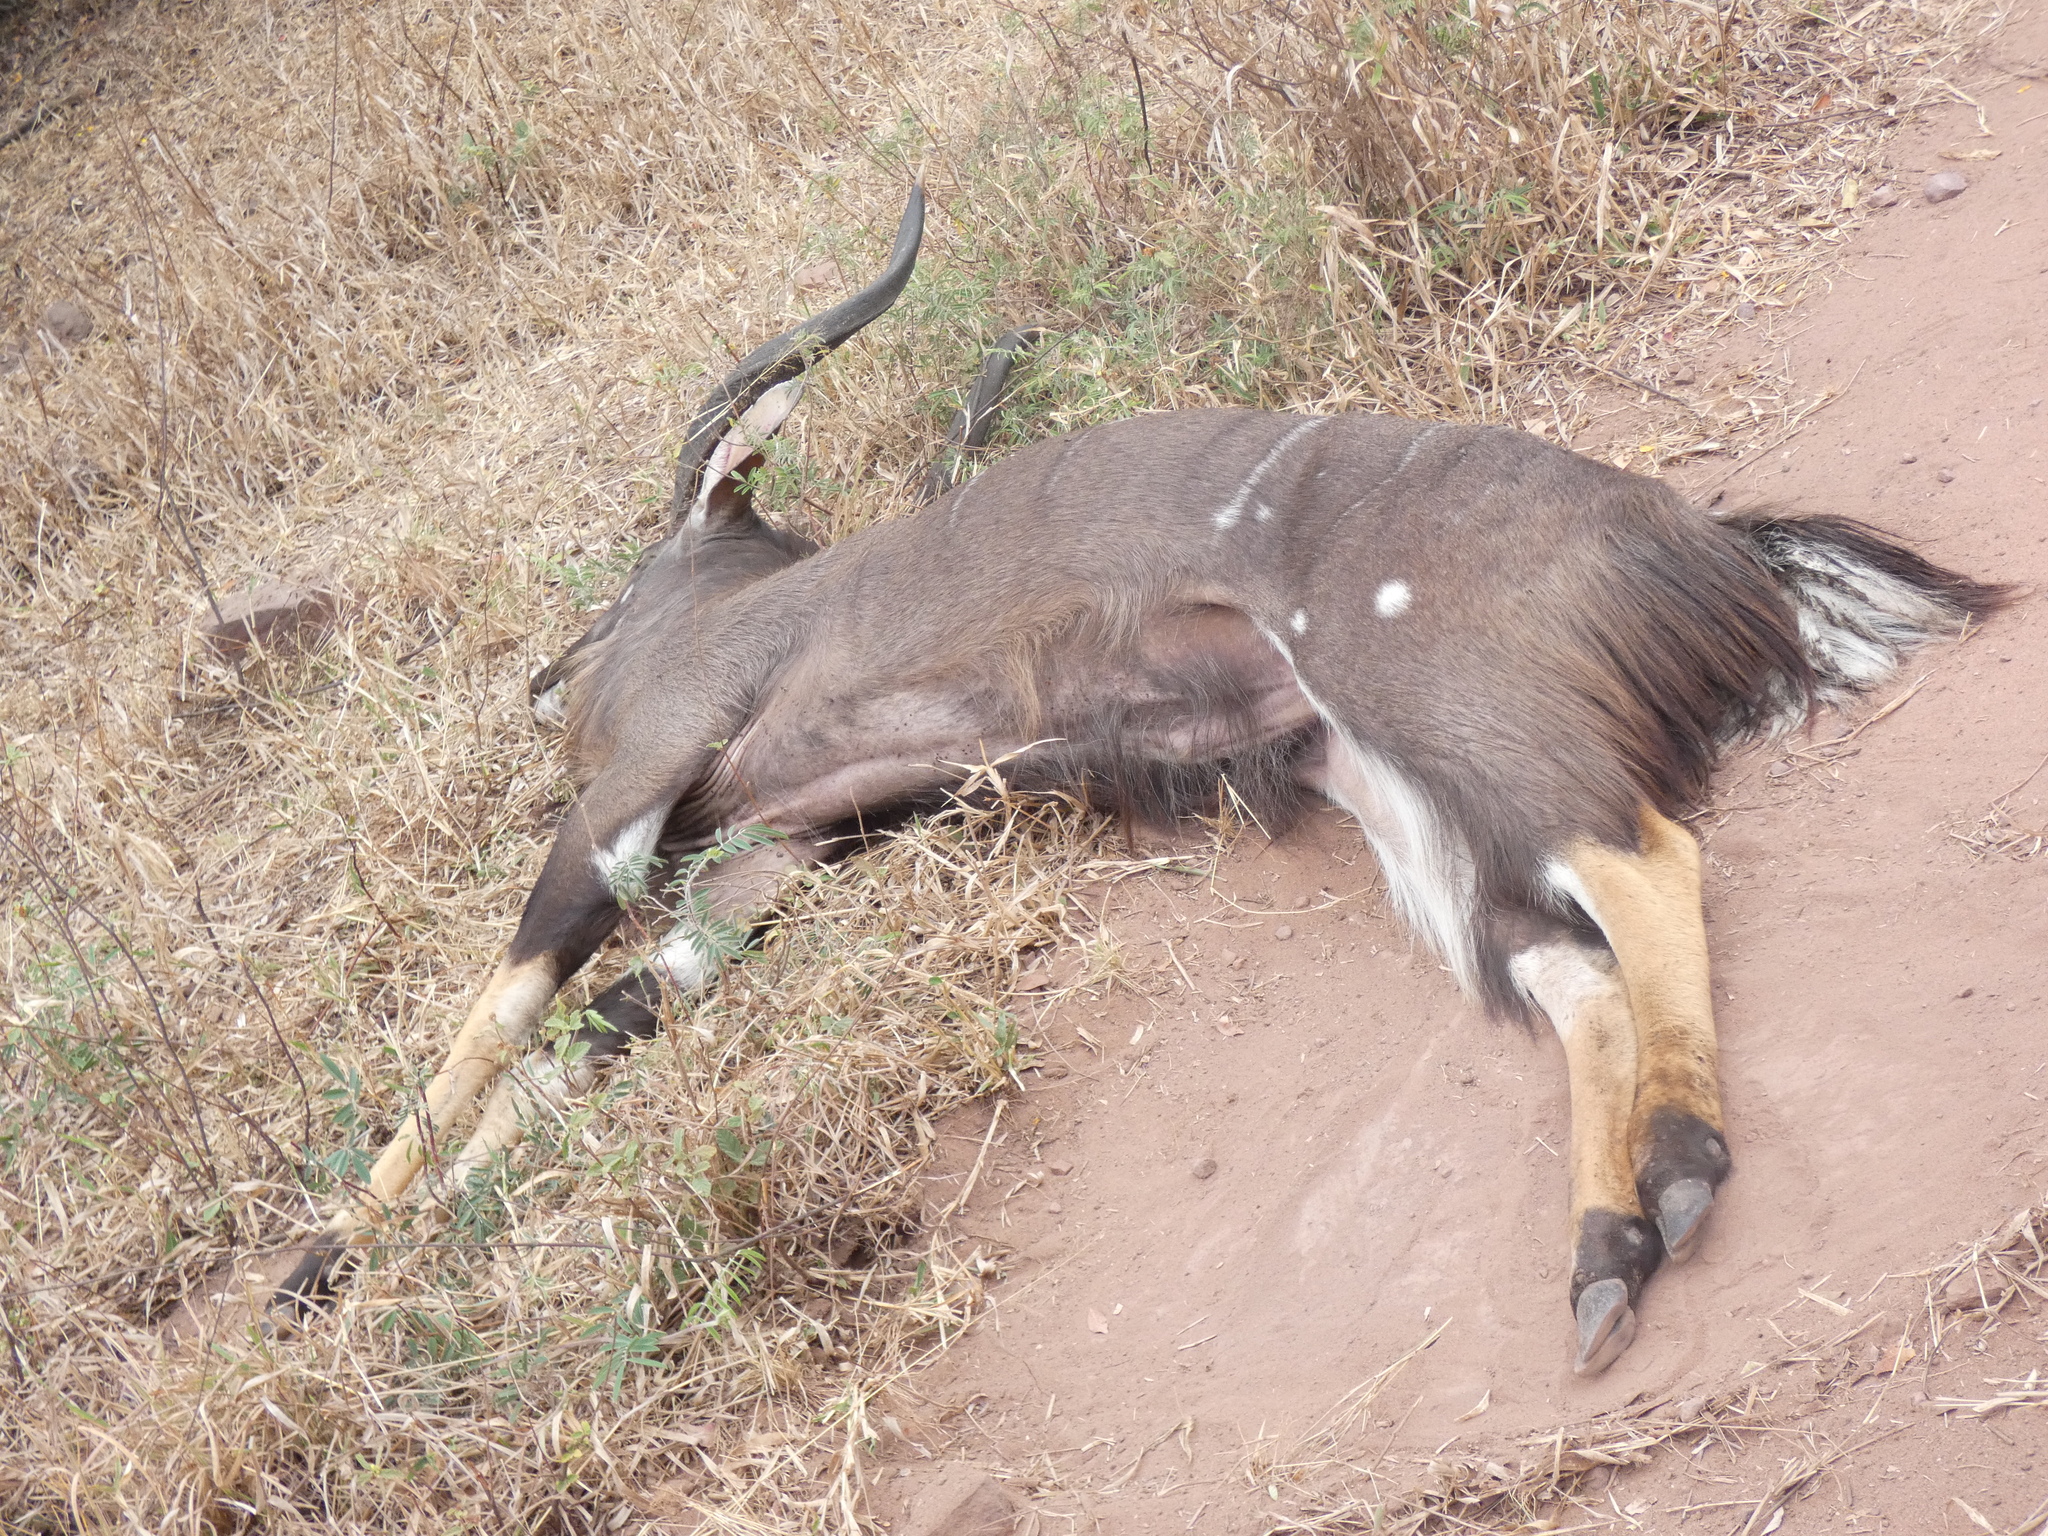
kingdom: Animalia
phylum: Chordata
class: Mammalia
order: Artiodactyla
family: Bovidae
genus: Tragelaphus
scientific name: Tragelaphus angasii
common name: Nyala
